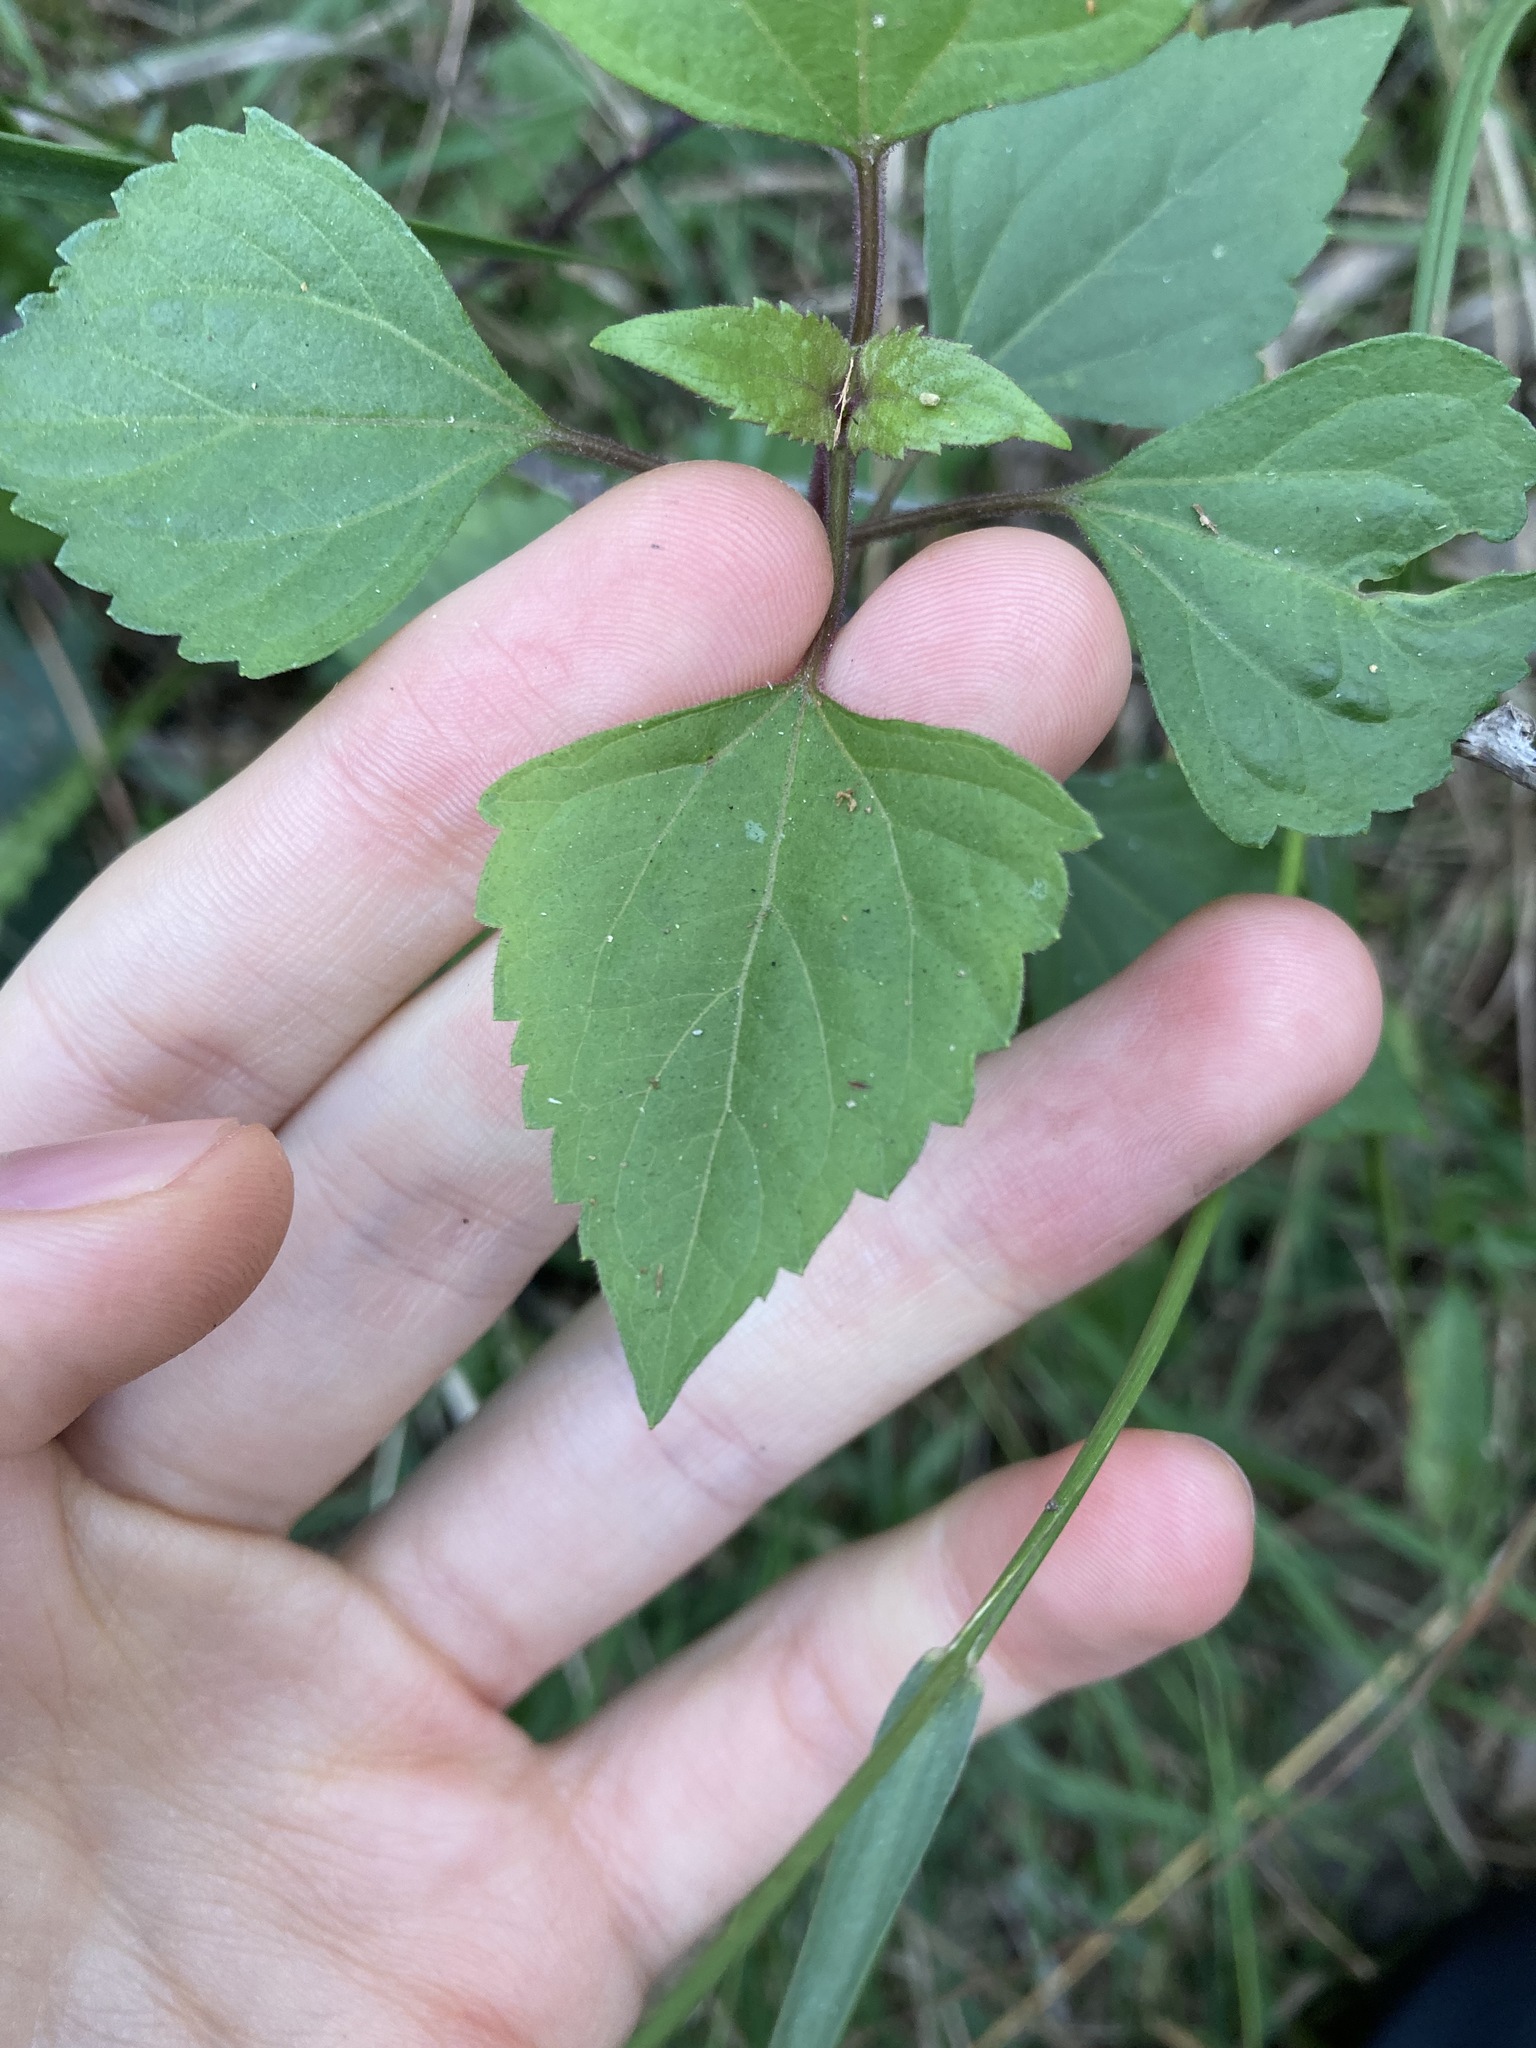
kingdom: Plantae
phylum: Tracheophyta
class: Magnoliopsida
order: Asterales
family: Asteraceae
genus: Ageratina
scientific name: Ageratina adenophora
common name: Sticky snakeroot
